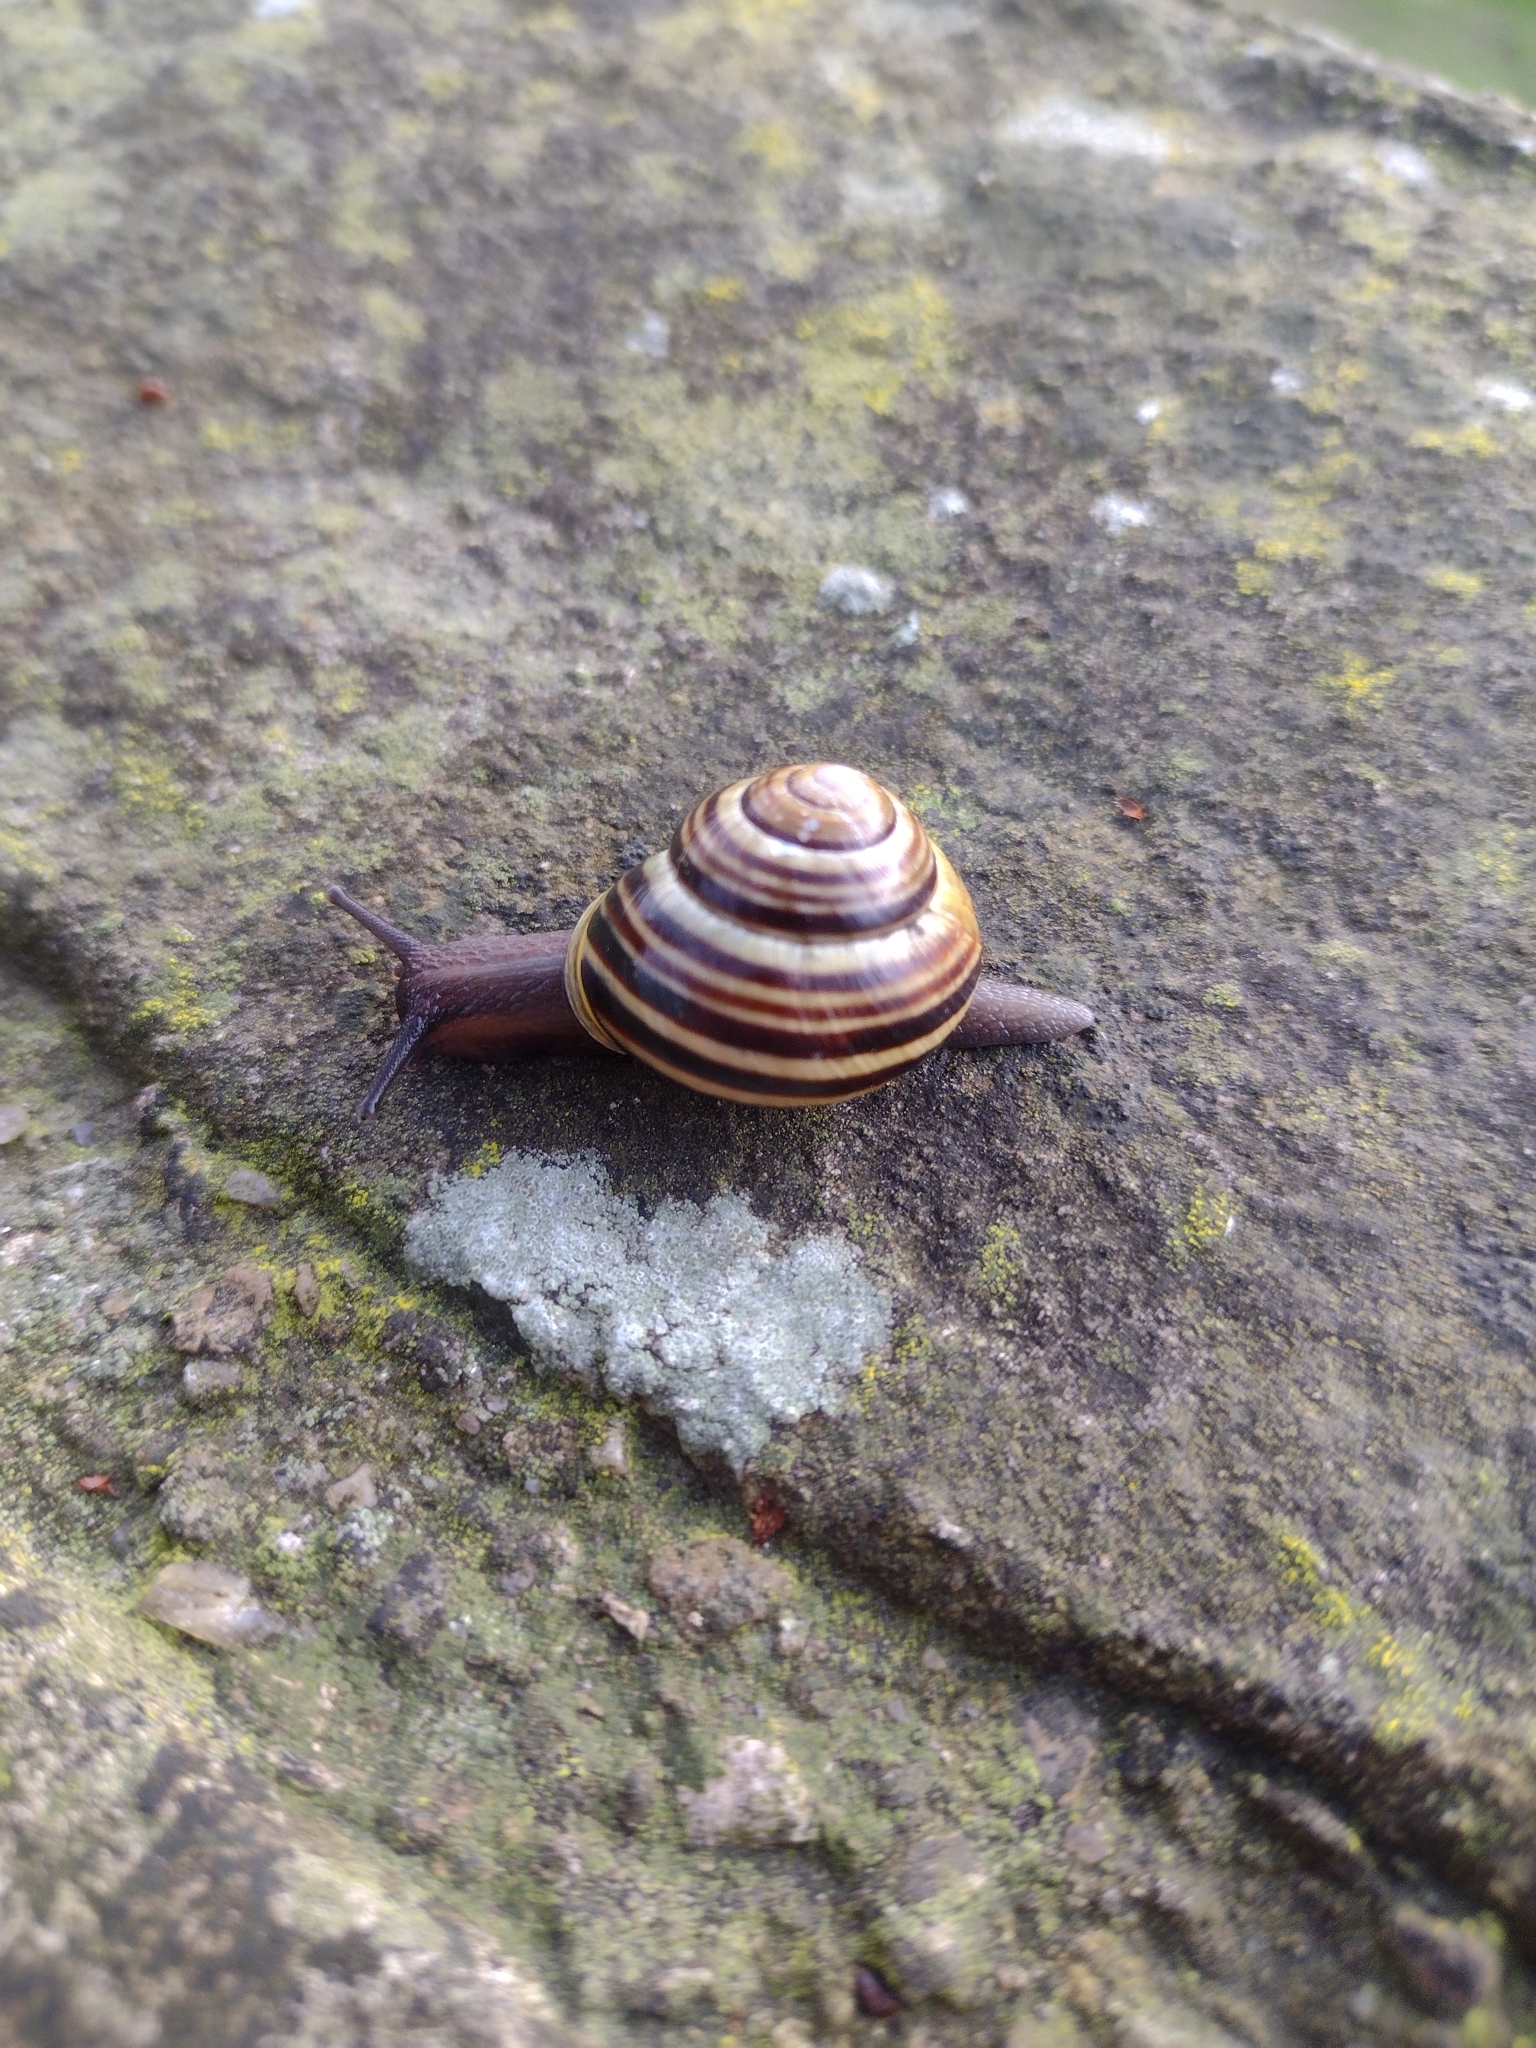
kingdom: Animalia
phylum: Mollusca
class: Gastropoda
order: Stylommatophora
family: Helicidae
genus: Cepaea
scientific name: Cepaea hortensis
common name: White-lip gardensnail
